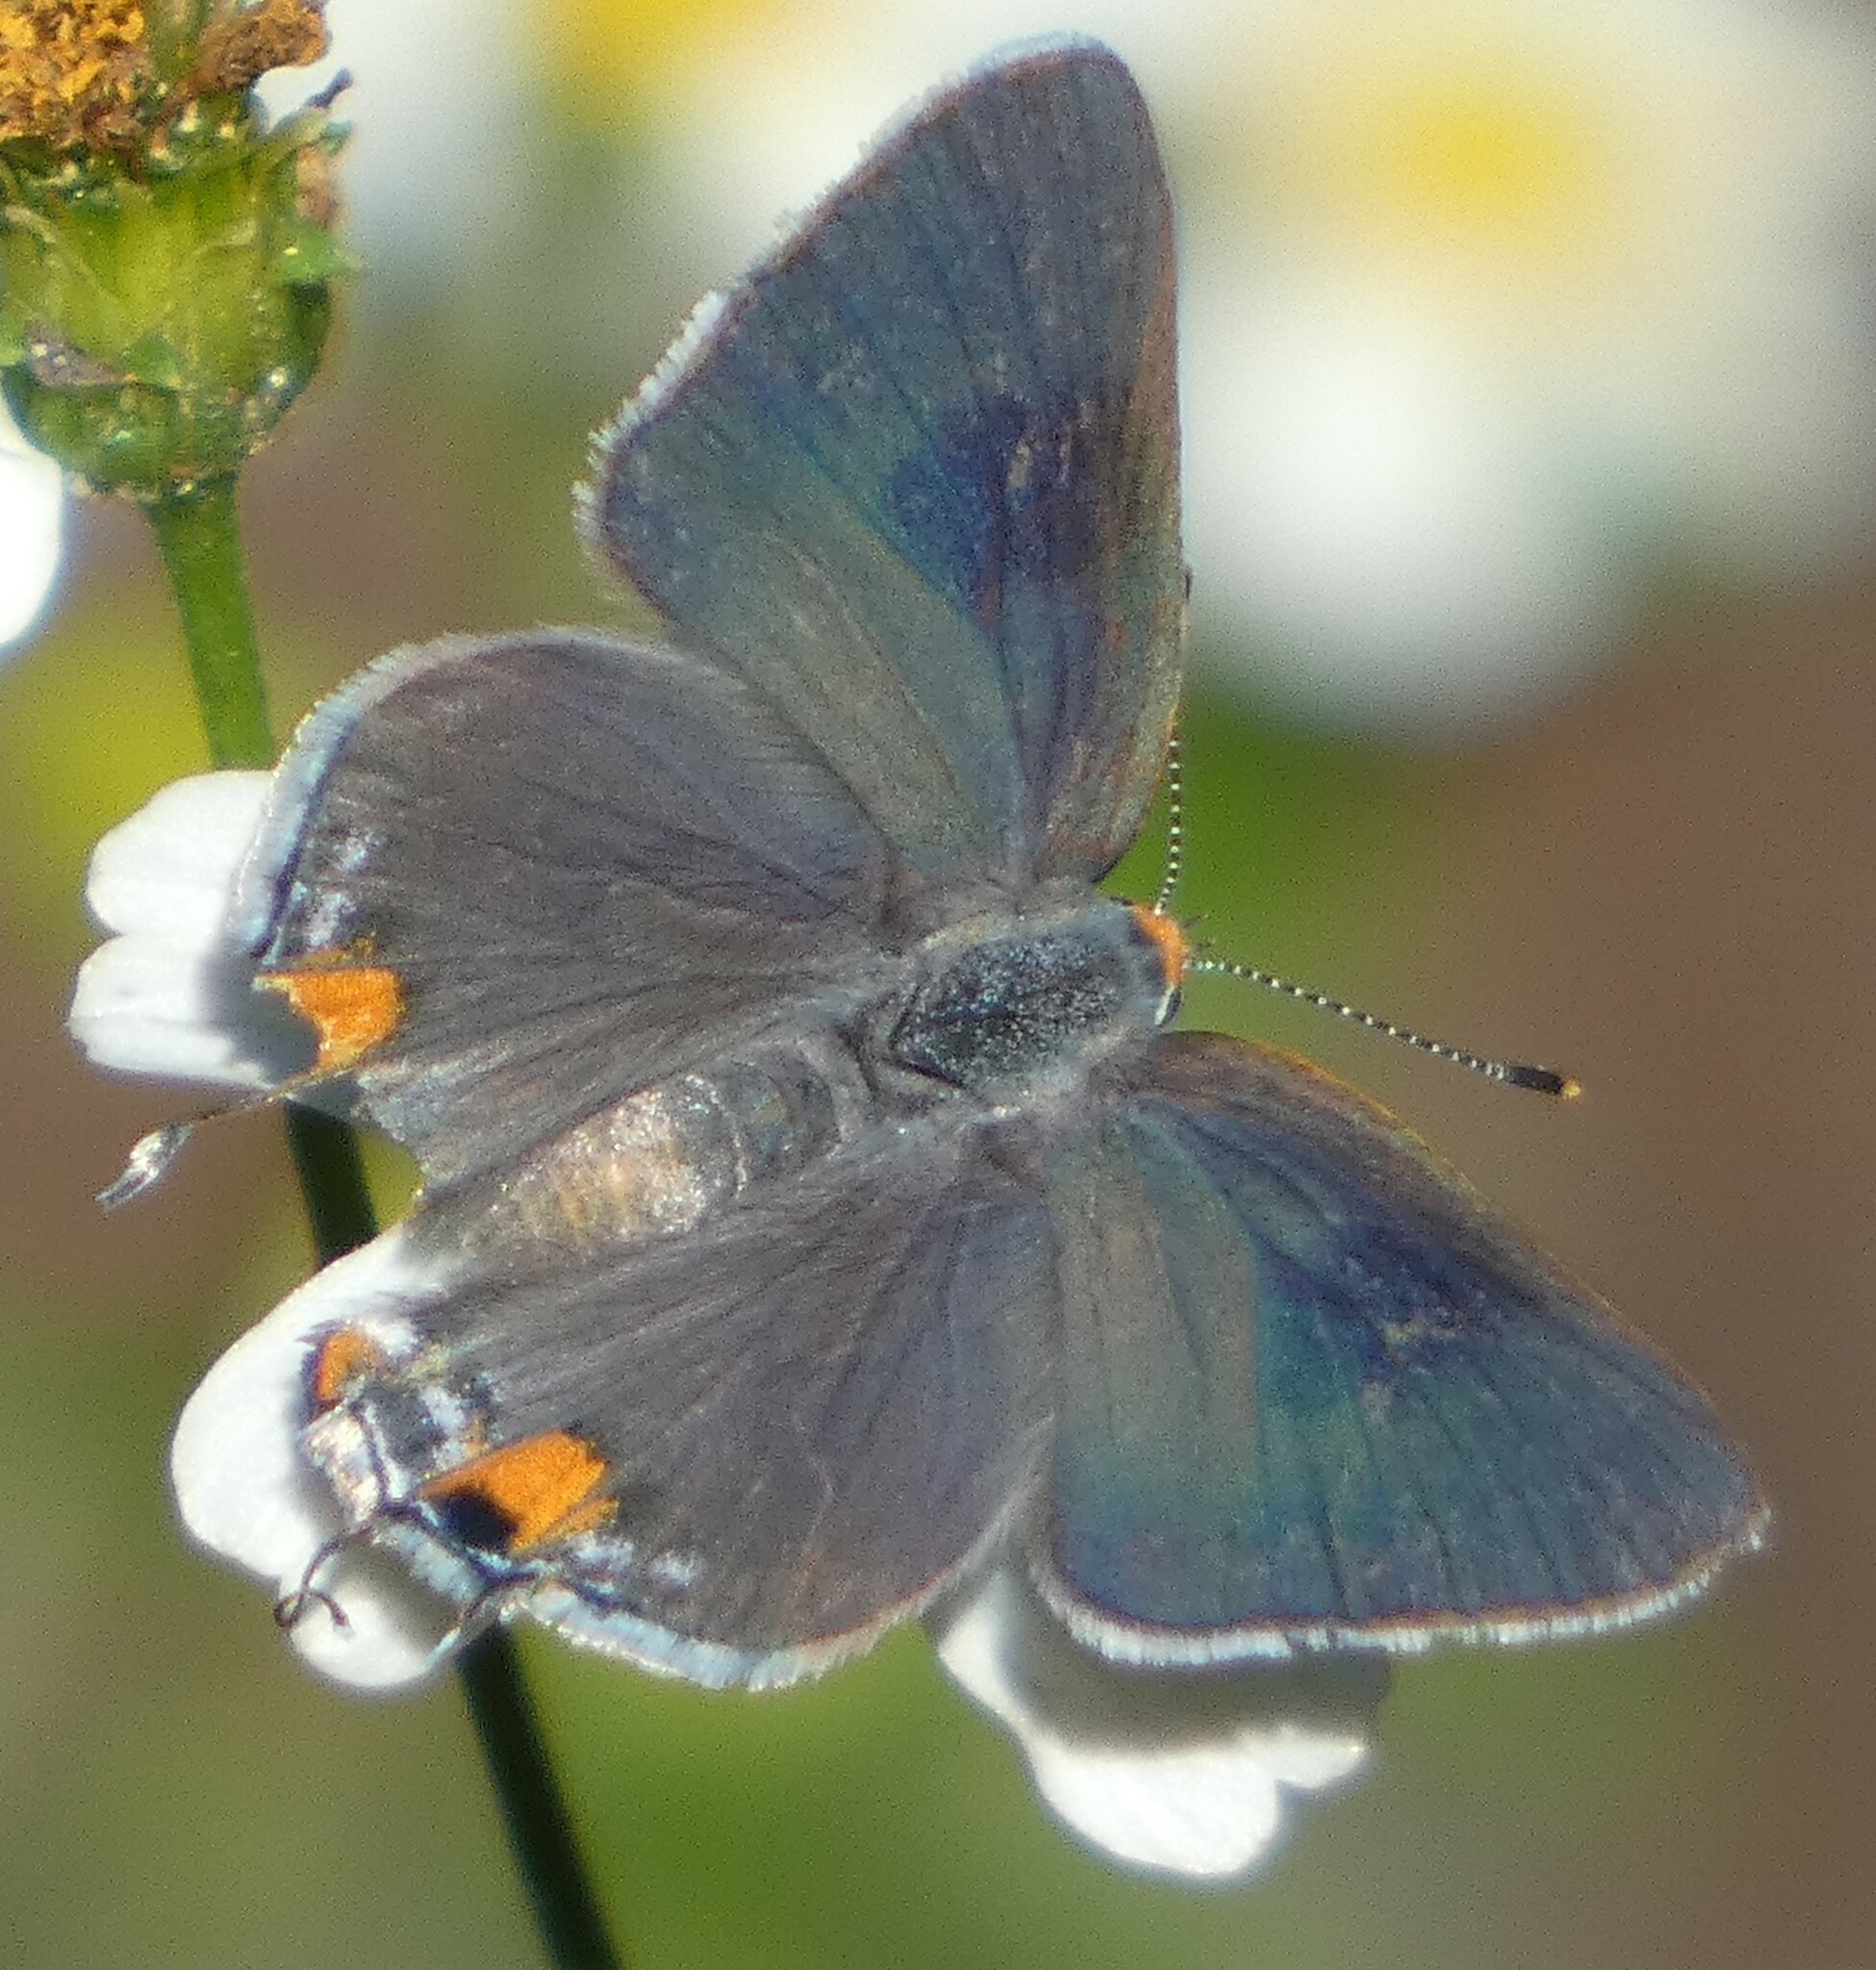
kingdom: Animalia
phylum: Arthropoda
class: Insecta
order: Lepidoptera
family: Lycaenidae
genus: Strymon
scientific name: Strymon melinus
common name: Gray hairstreak
